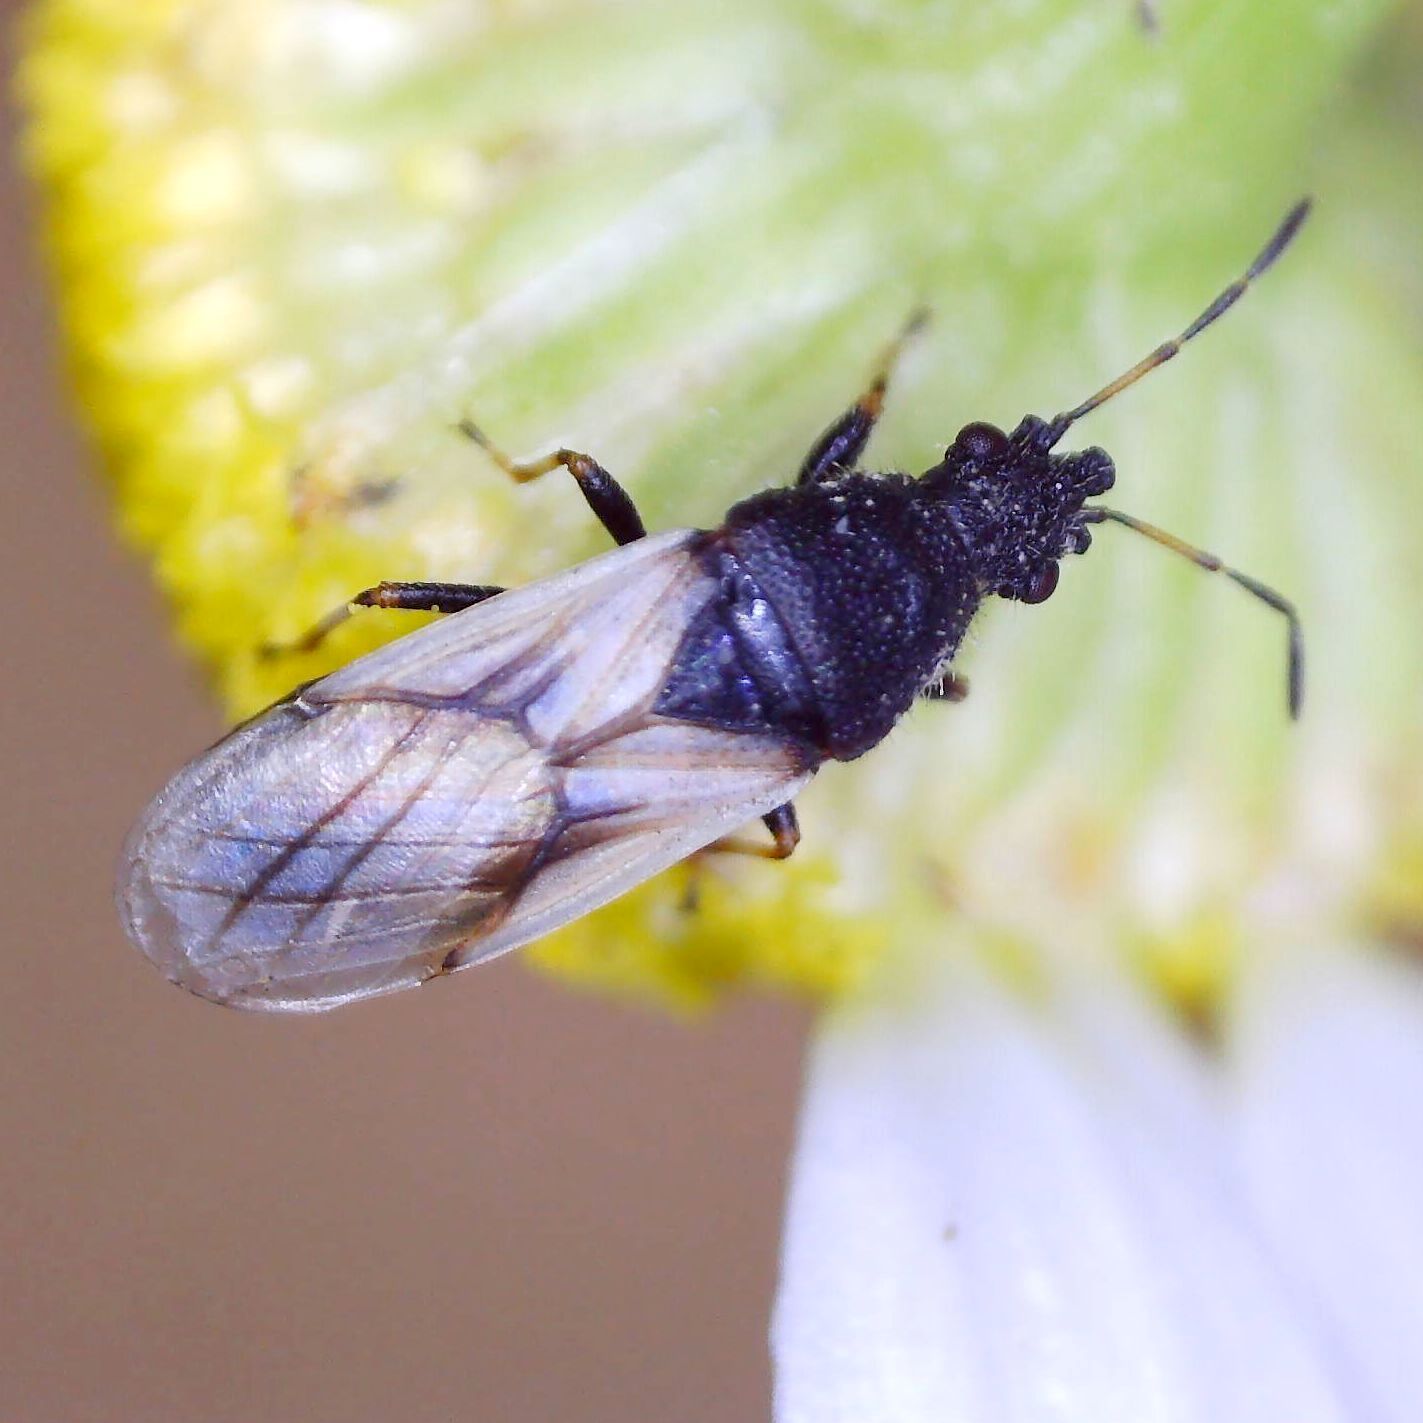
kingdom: Animalia
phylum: Arthropoda
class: Insecta
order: Hemiptera
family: Oxycarenidae
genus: Metopoplax
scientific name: Metopoplax ditomoides
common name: Seed bug
